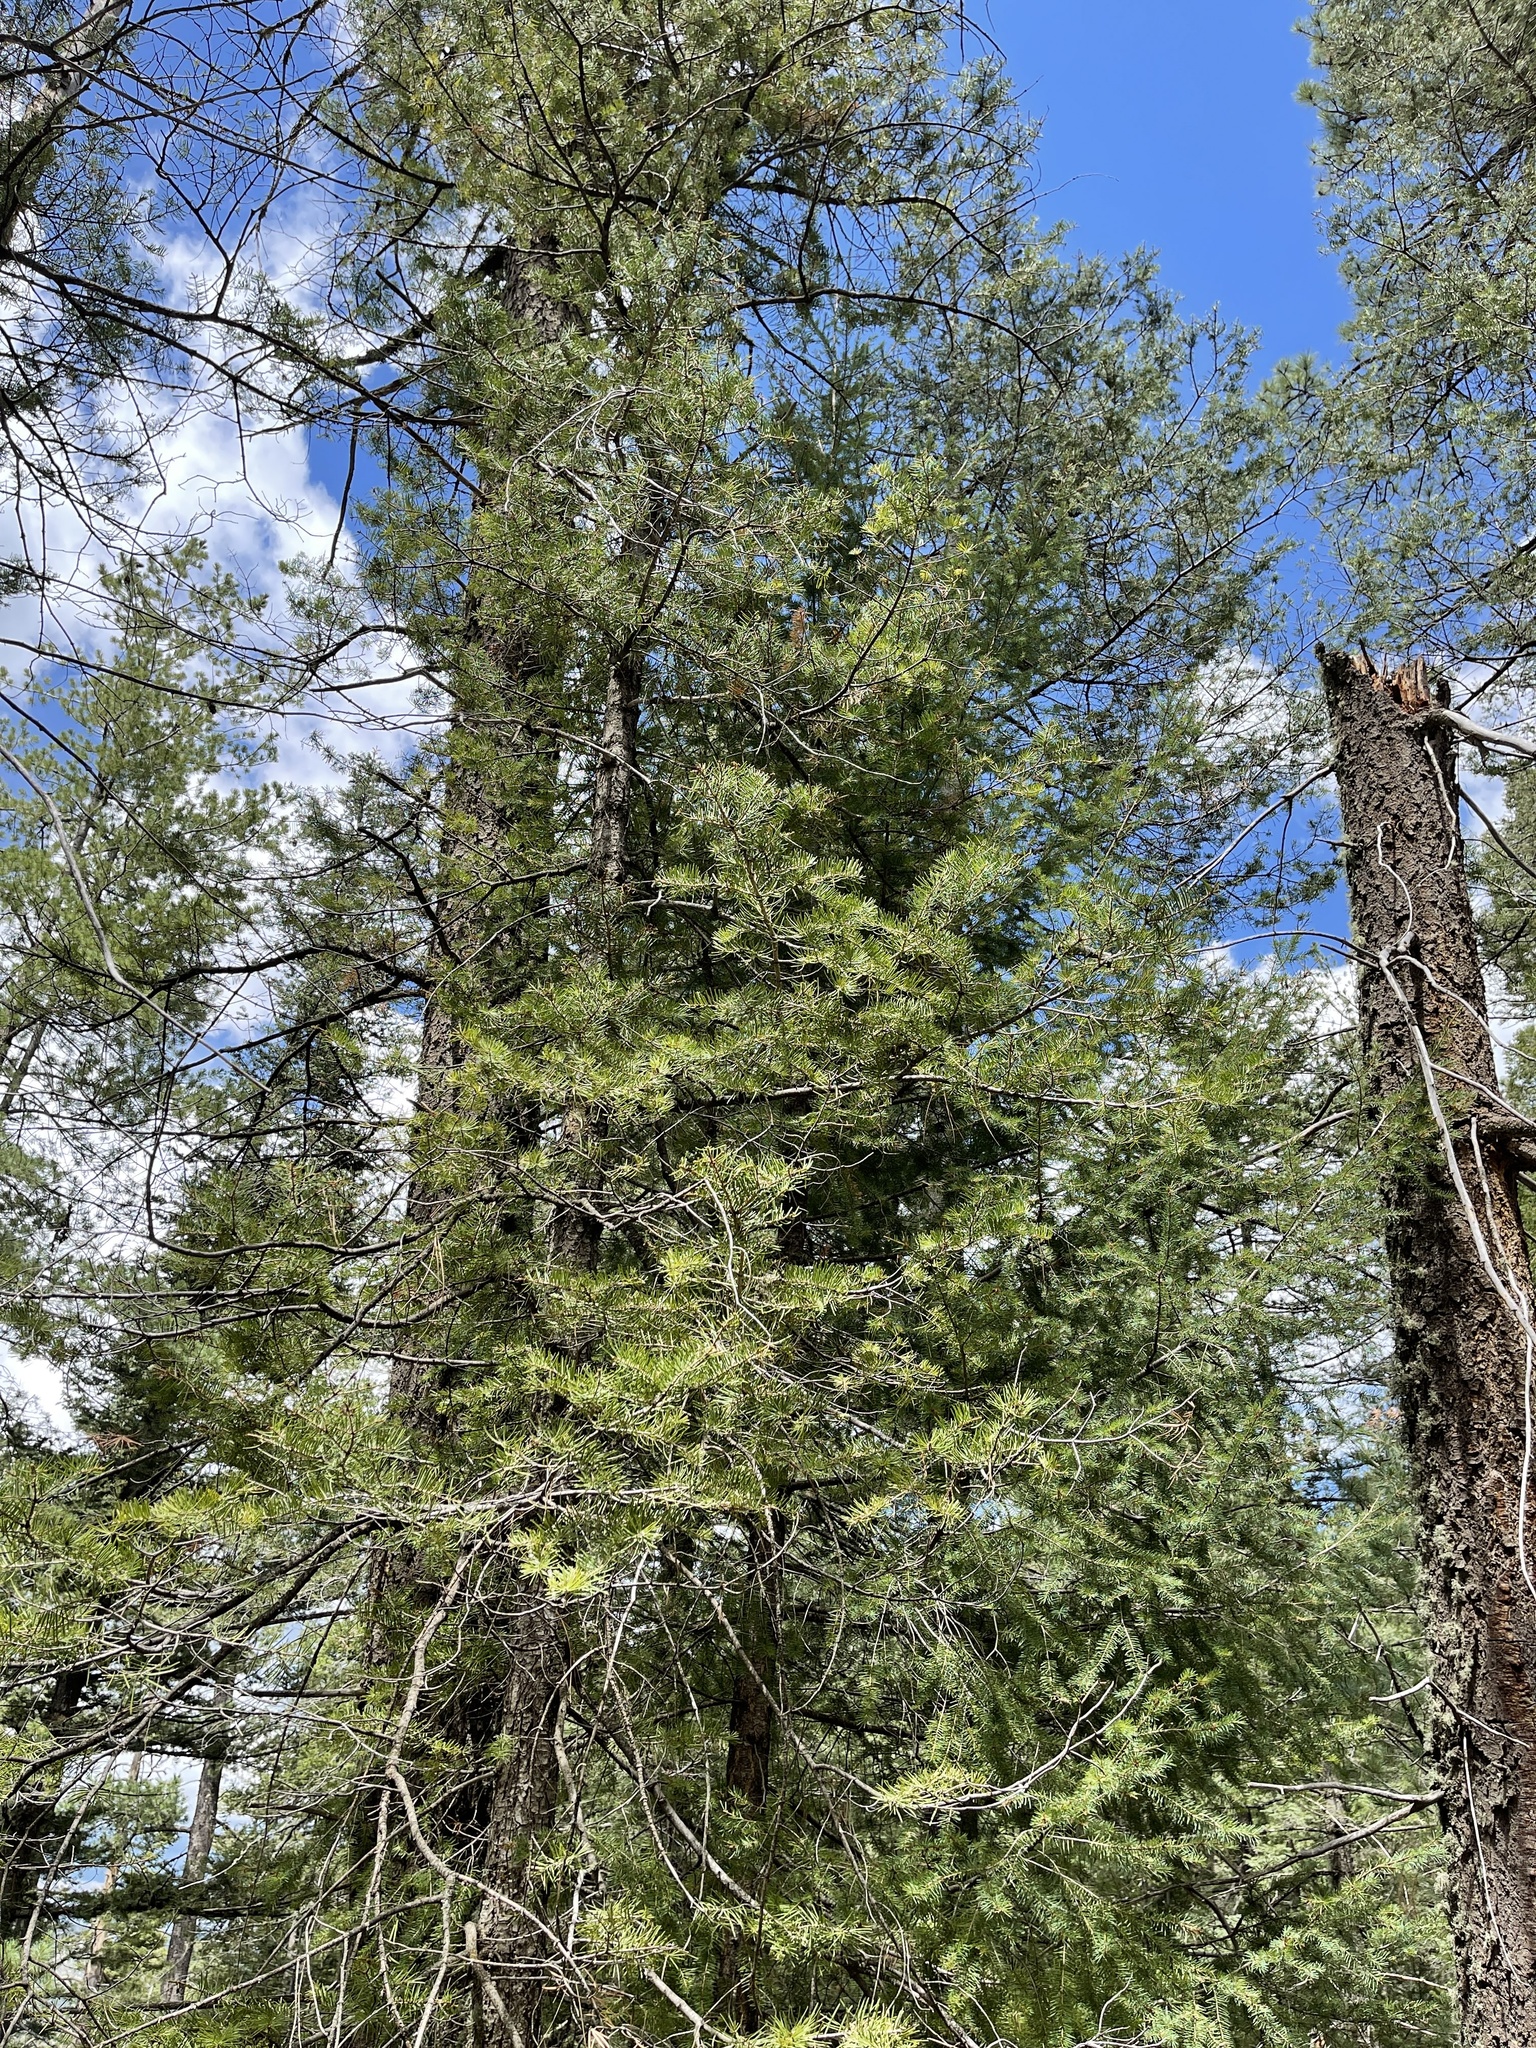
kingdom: Plantae
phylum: Tracheophyta
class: Pinopsida
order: Pinales
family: Pinaceae
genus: Abies
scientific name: Abies concolor
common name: Colorado fir
